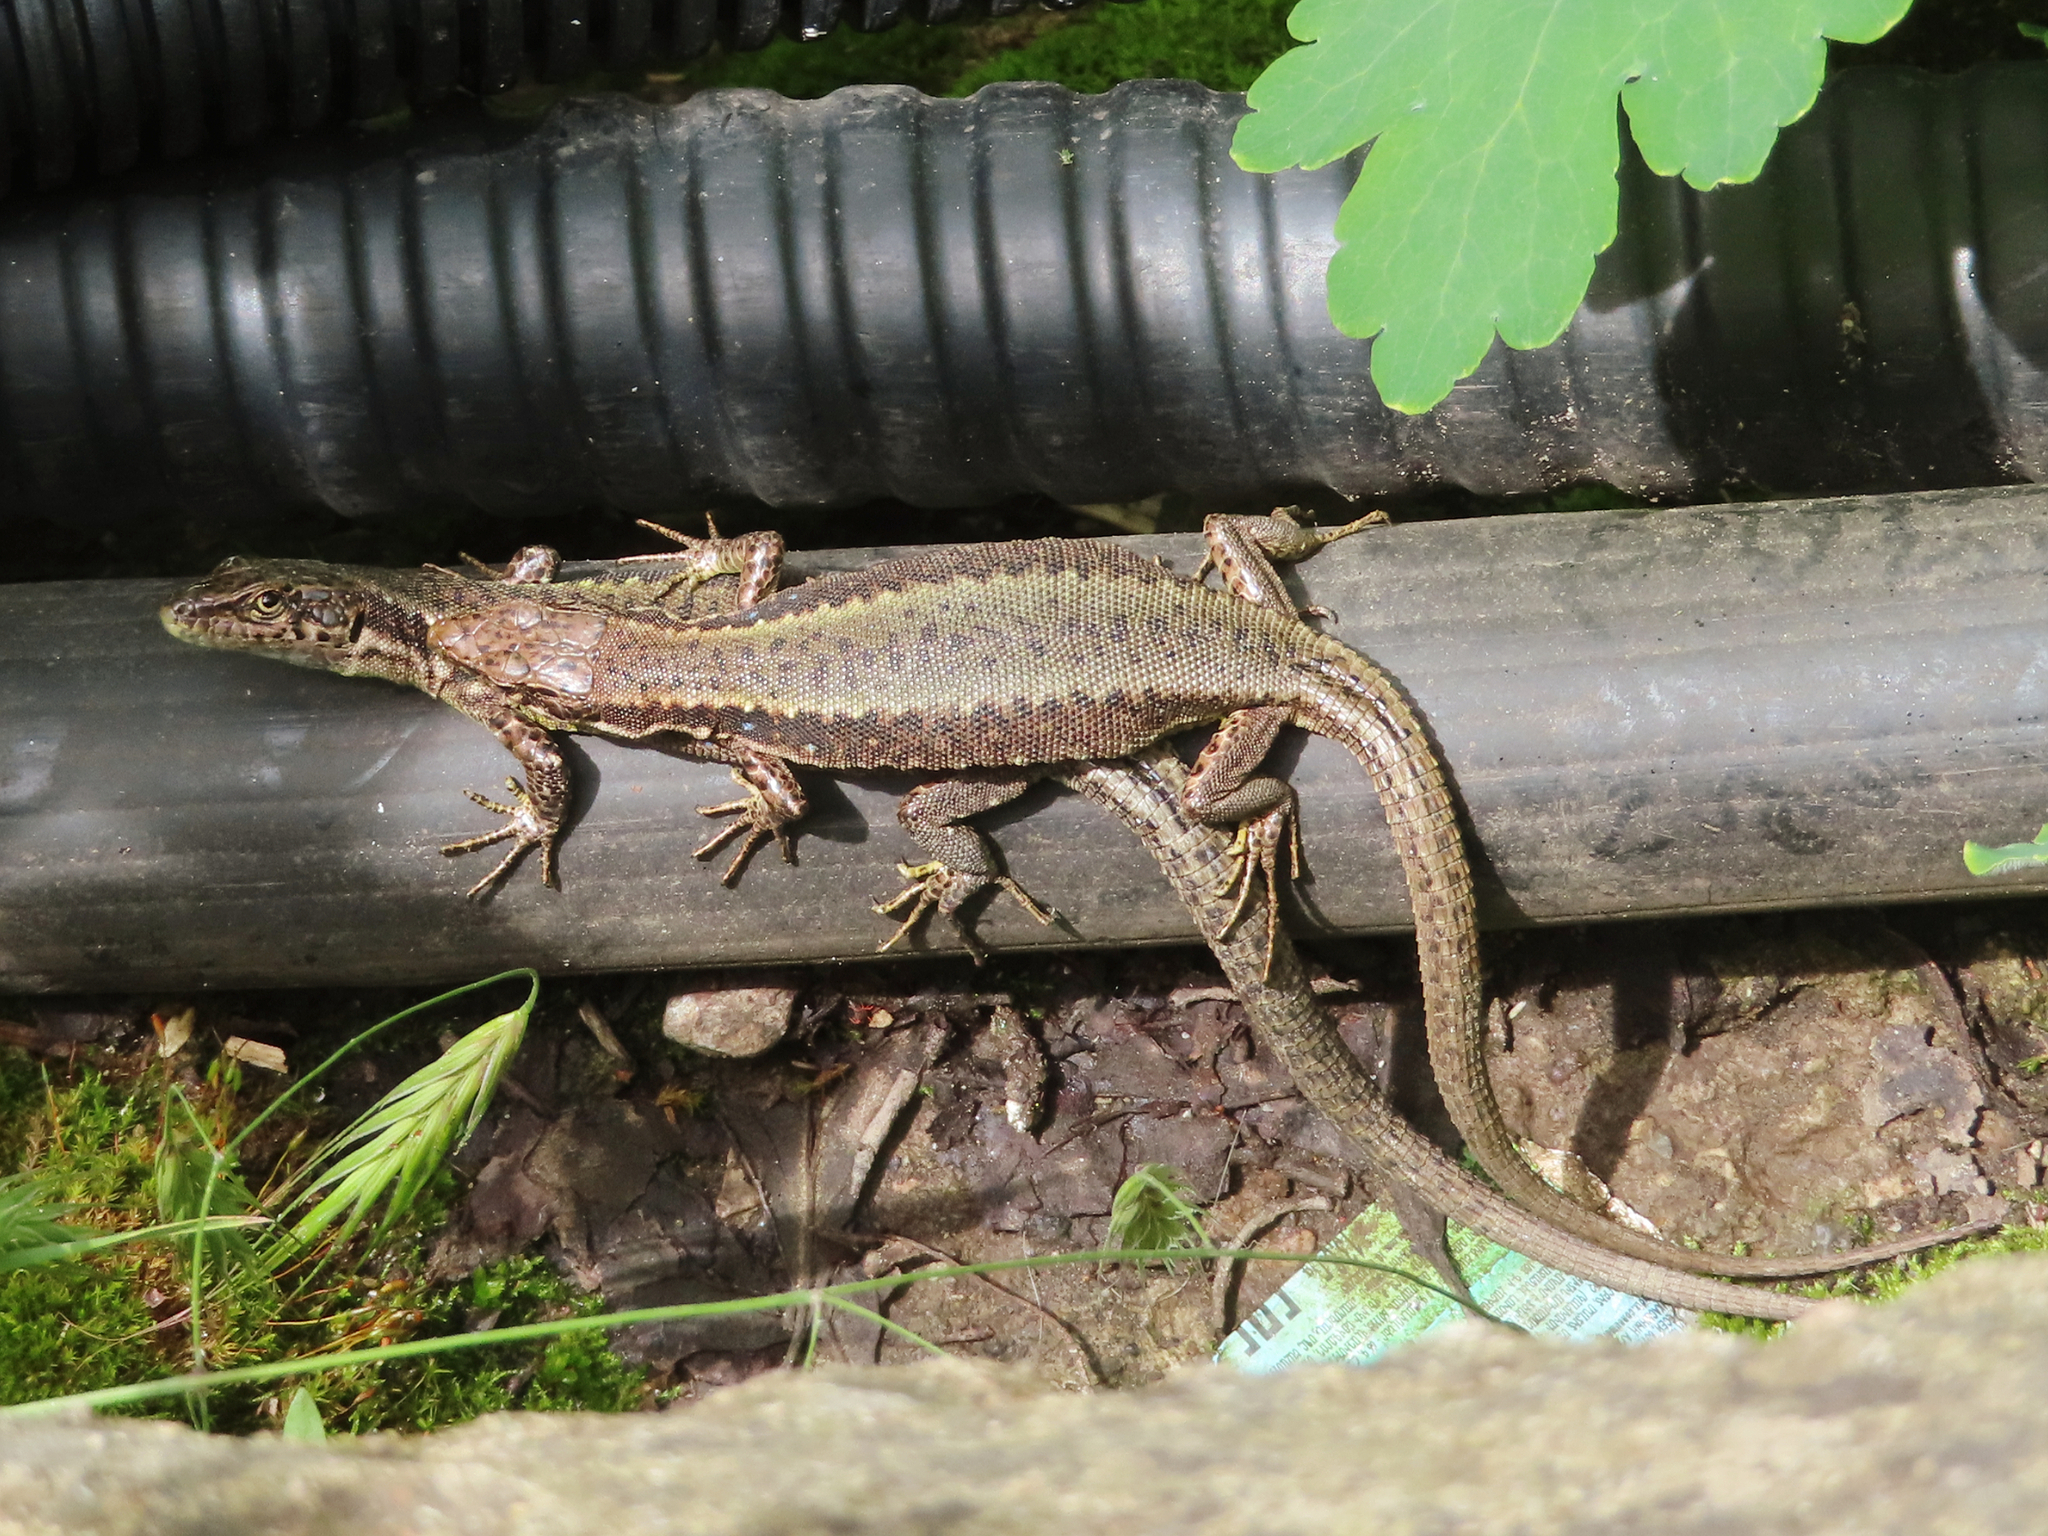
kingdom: Animalia
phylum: Chordata
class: Squamata
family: Lacertidae
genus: Darevskia
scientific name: Darevskia armeniaca
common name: Armenian lizard
